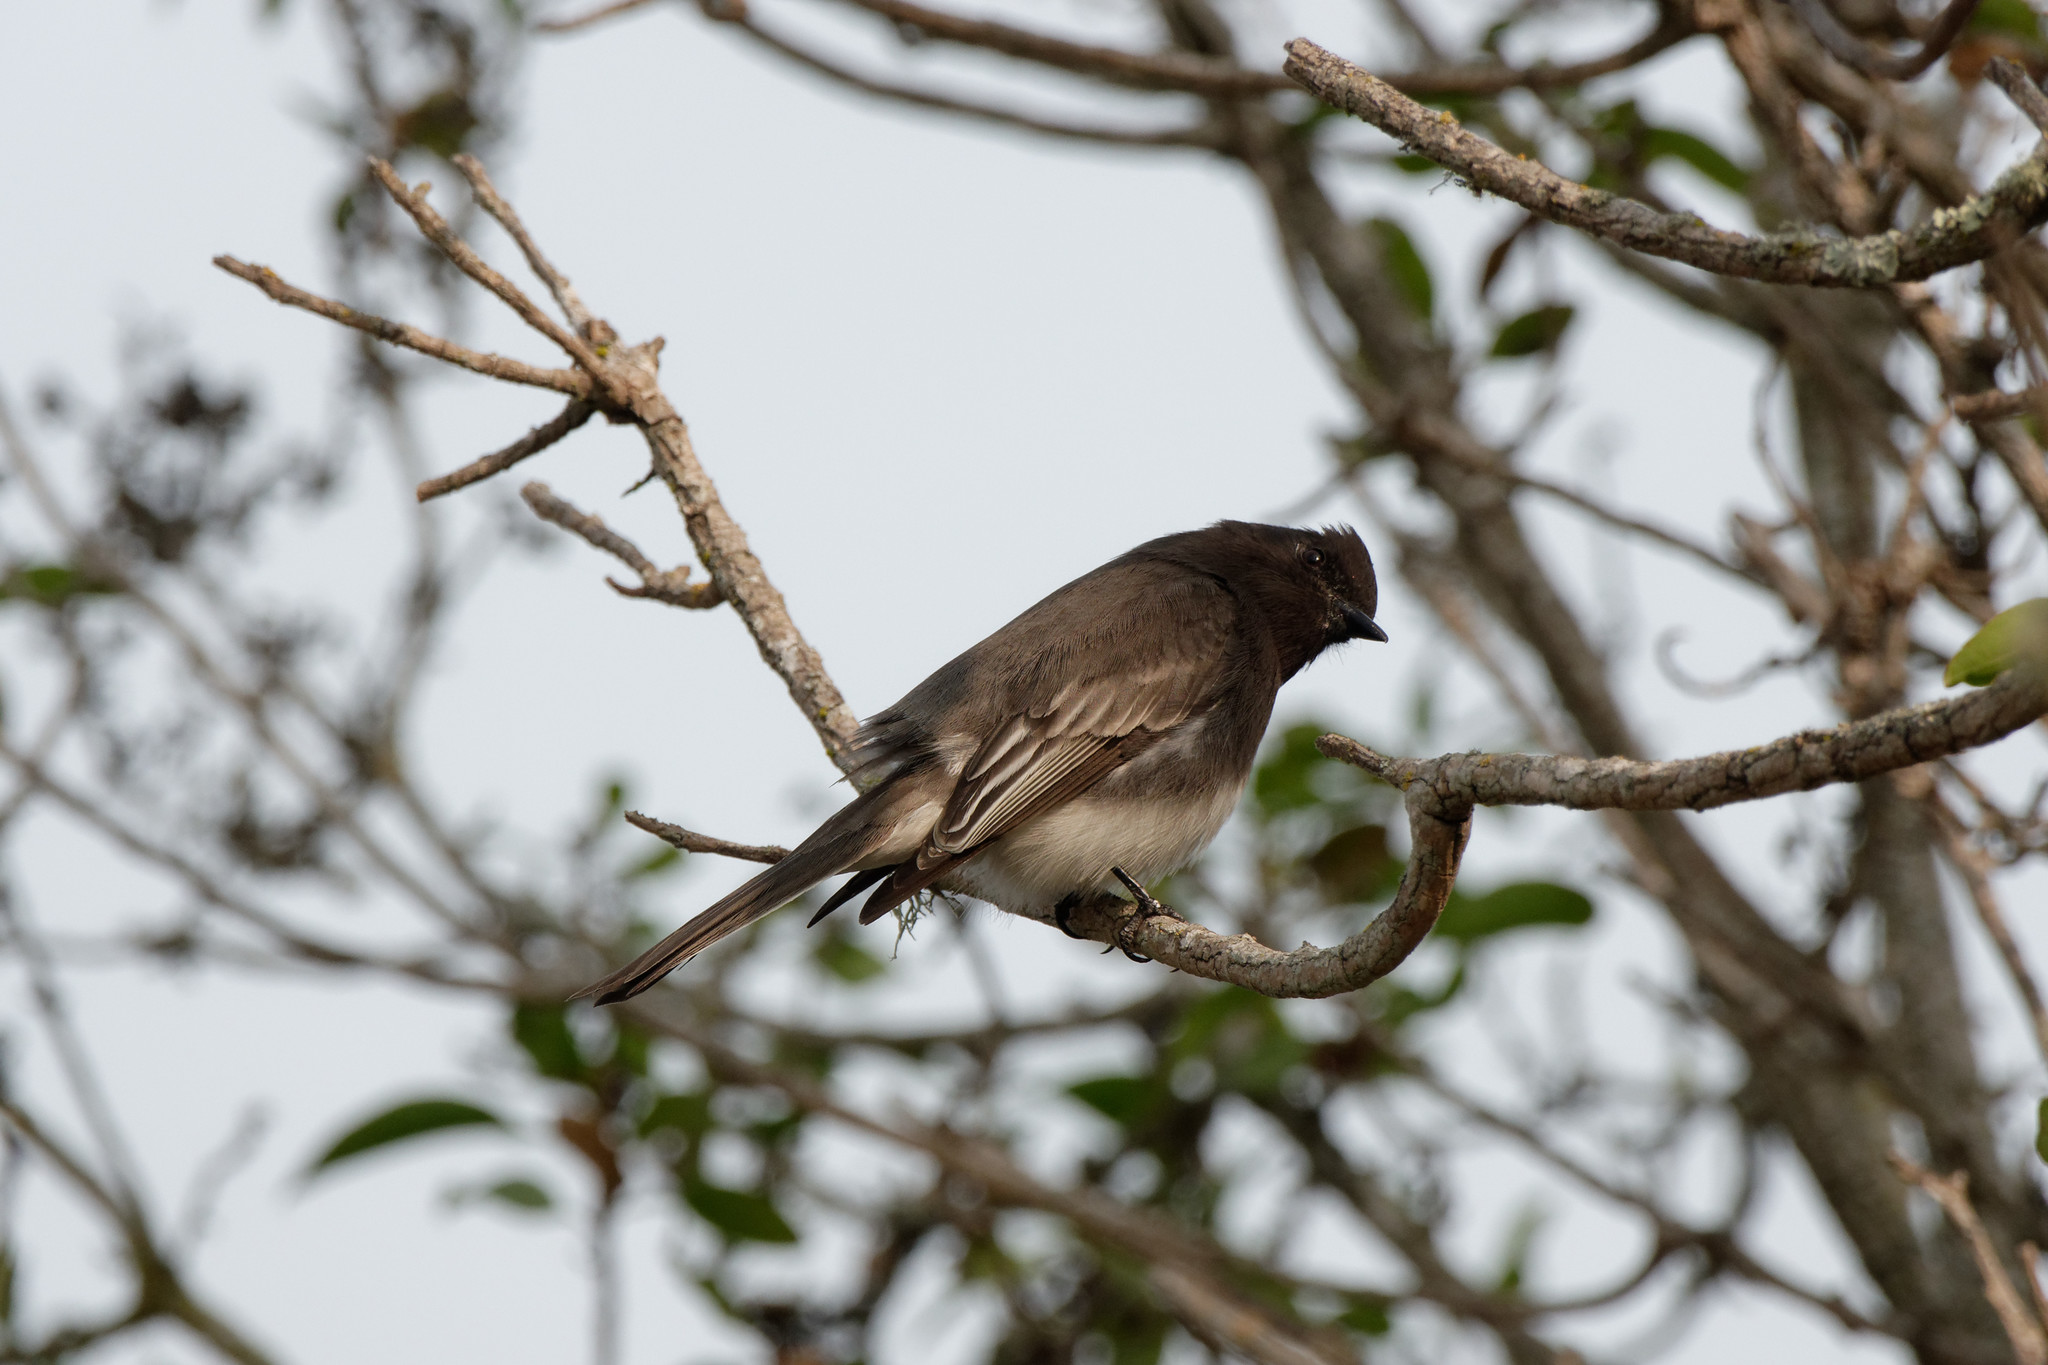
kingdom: Animalia
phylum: Chordata
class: Aves
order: Passeriformes
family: Tyrannidae
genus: Sayornis
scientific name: Sayornis nigricans
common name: Black phoebe
